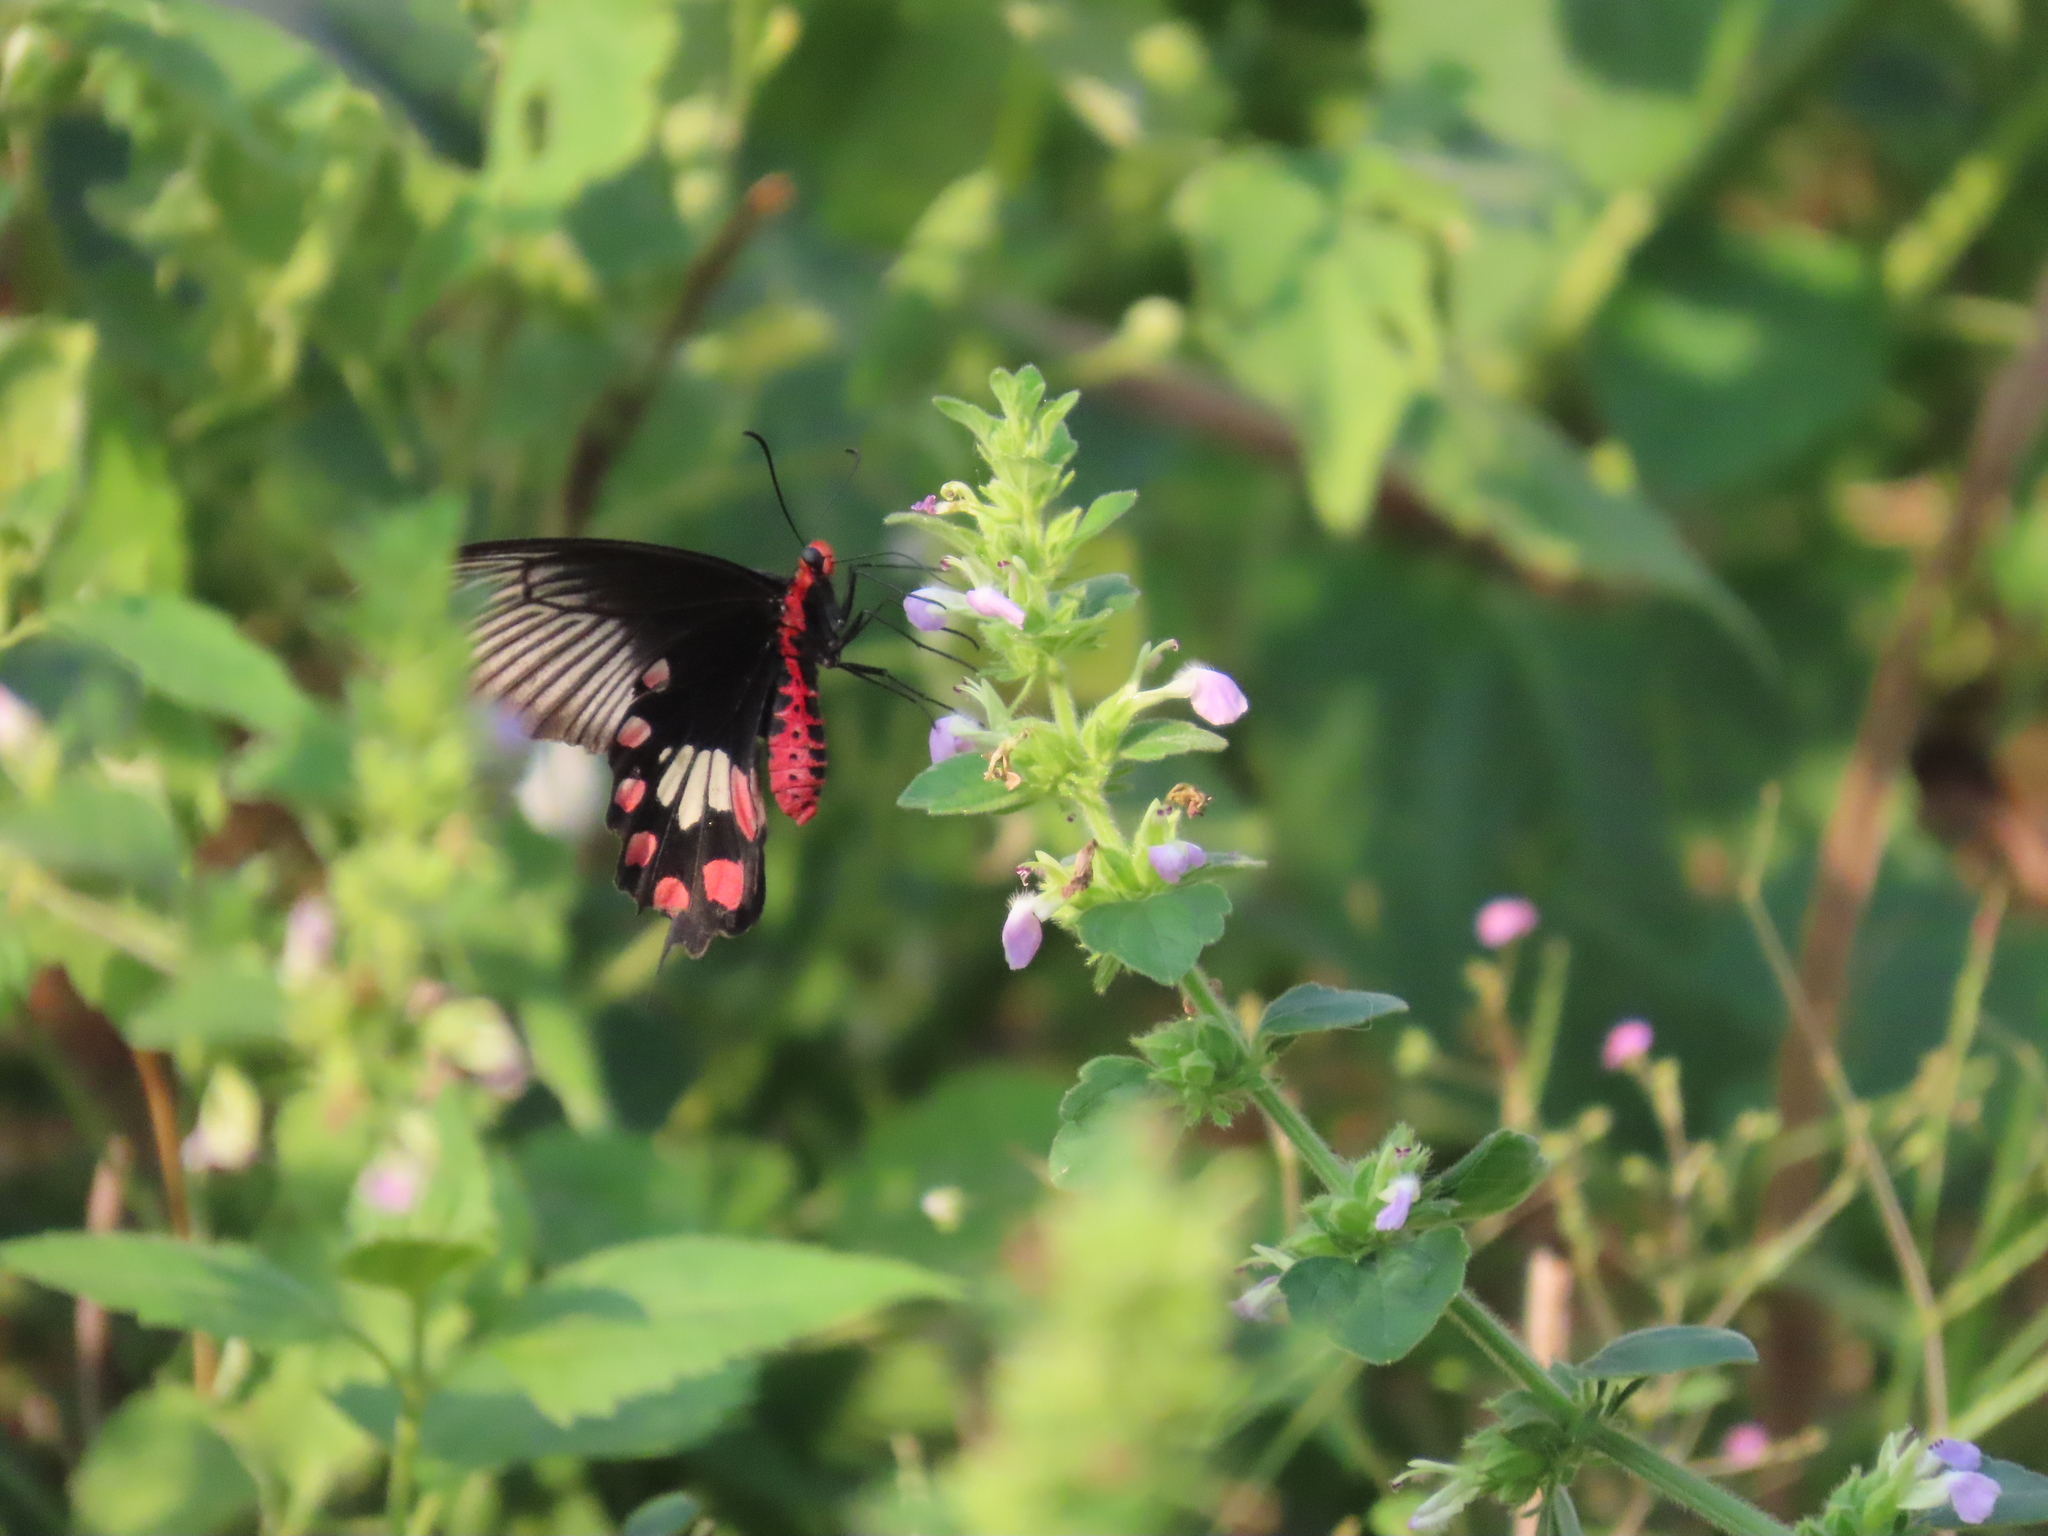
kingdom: Animalia
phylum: Arthropoda
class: Insecta
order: Lepidoptera
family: Papilionidae
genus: Pachliopta
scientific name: Pachliopta aristolochiae
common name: Common rose
